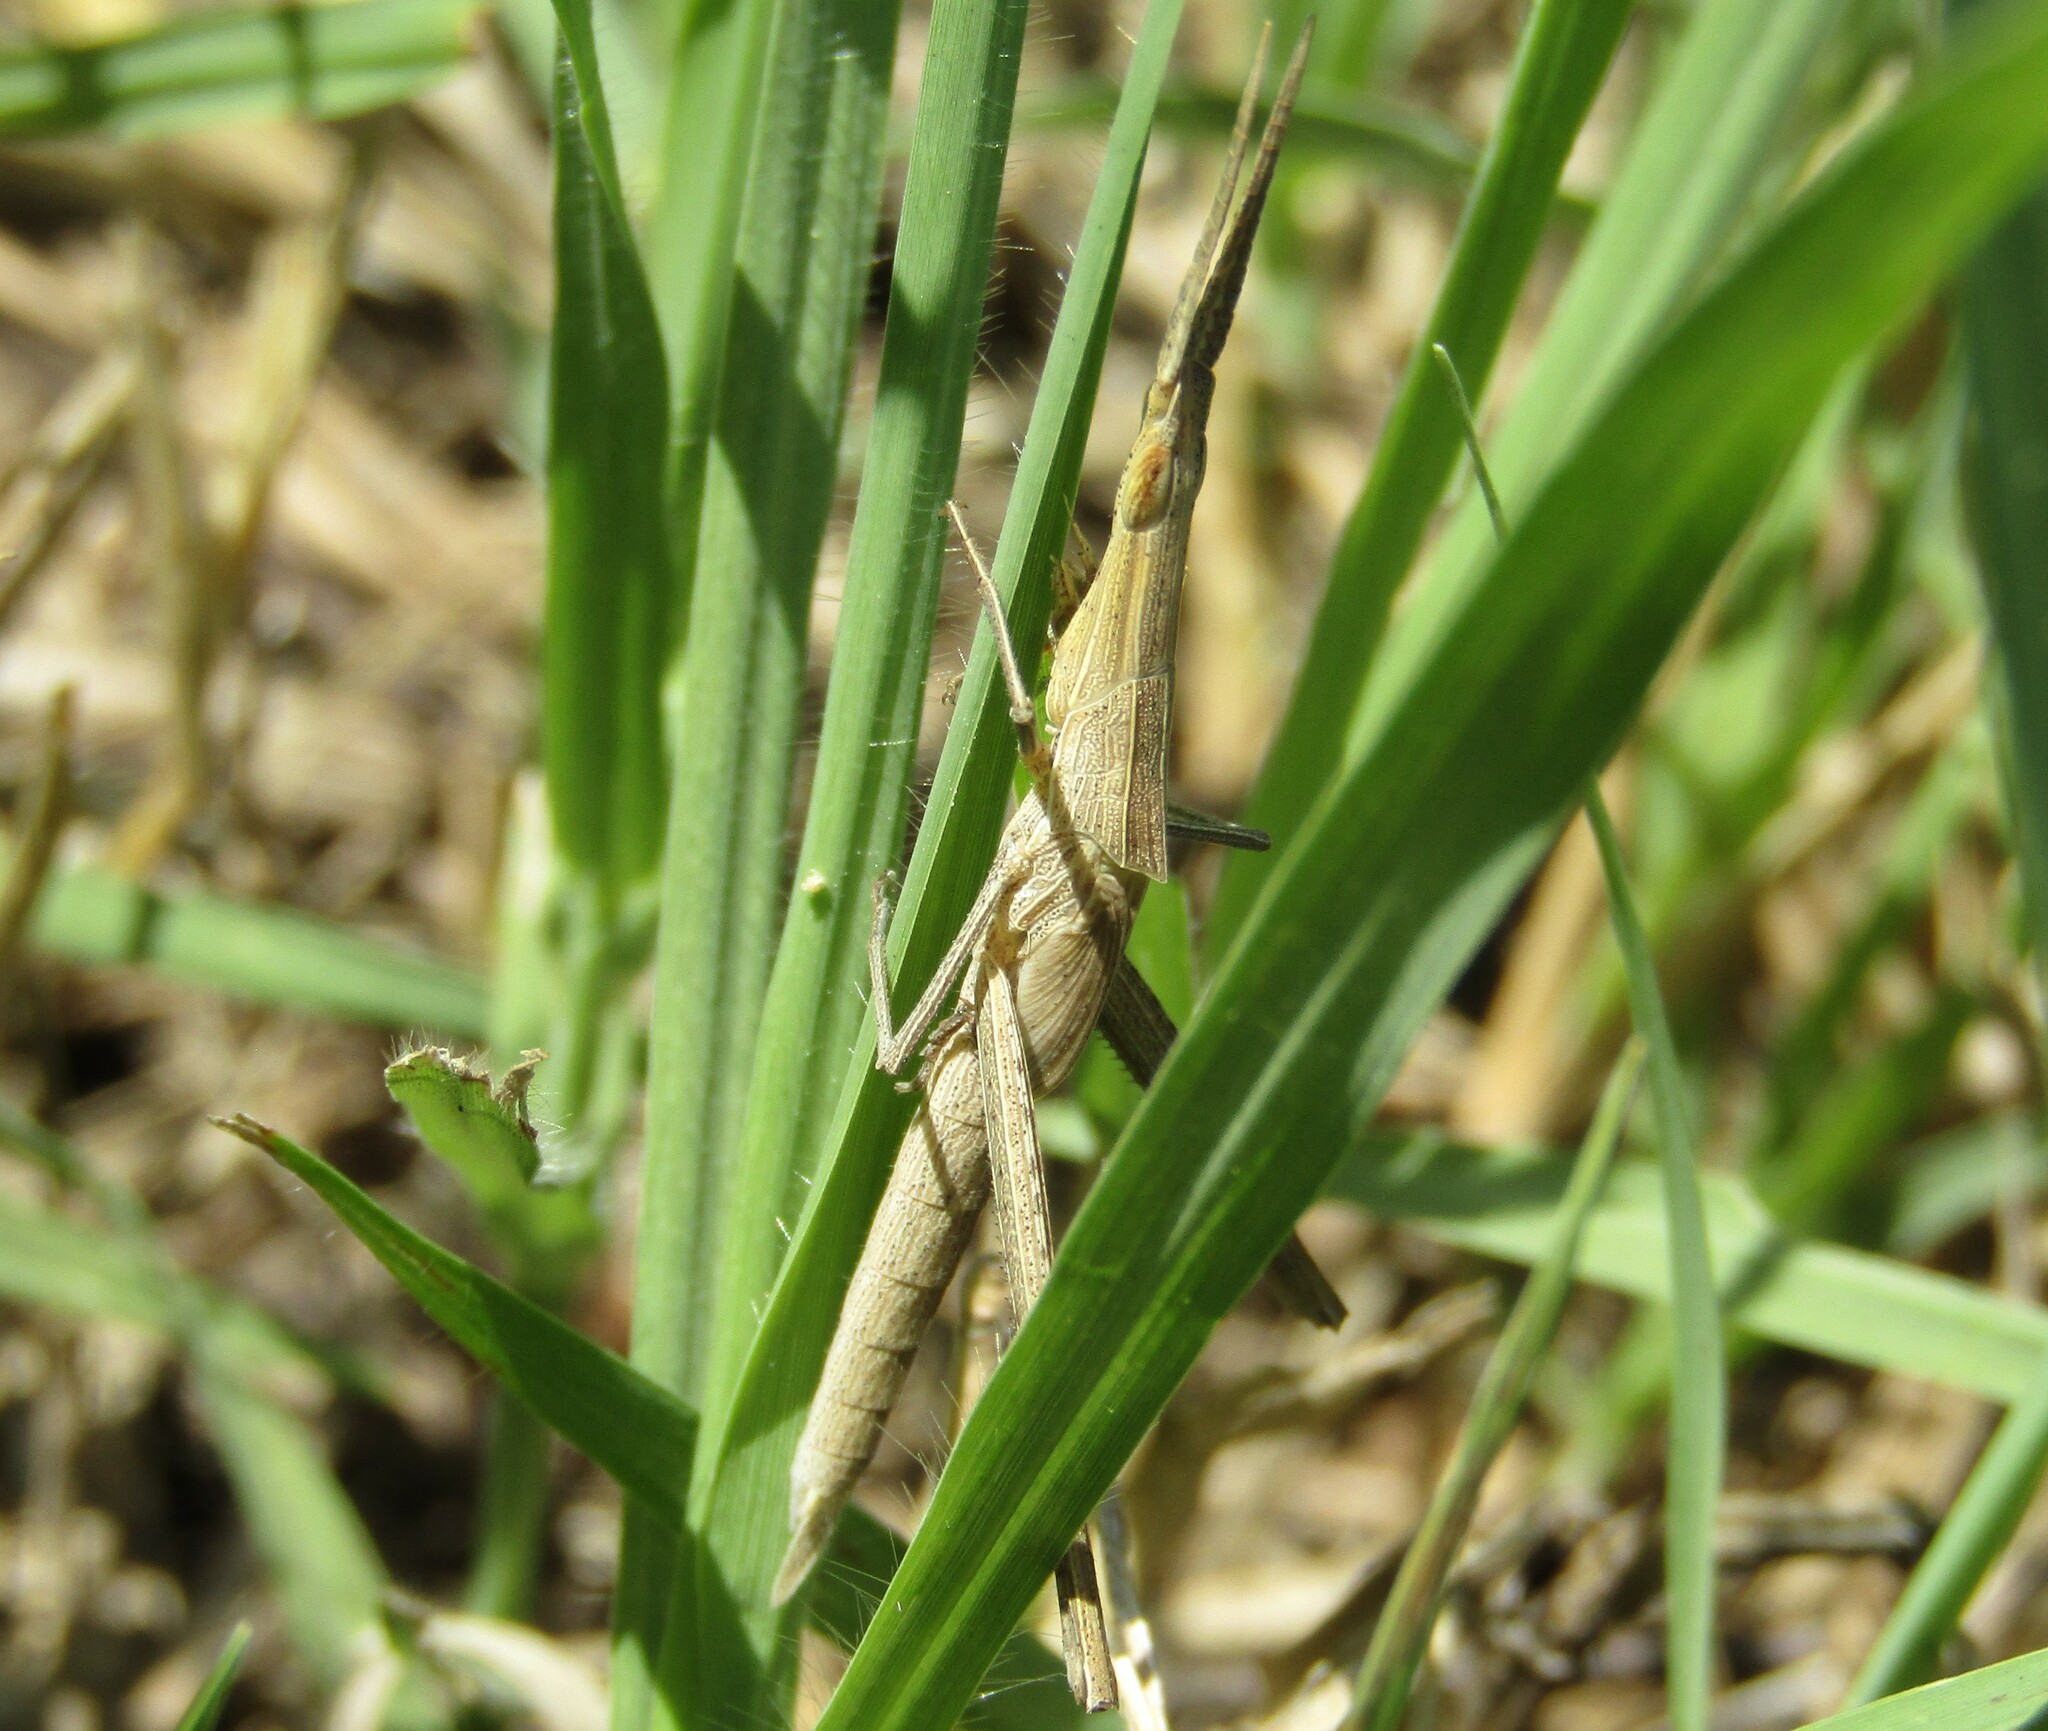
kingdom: Animalia
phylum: Arthropoda
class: Insecta
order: Orthoptera
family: Acrididae
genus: Acrida
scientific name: Acrida ungarica
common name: Common cone-headed grasshopper
